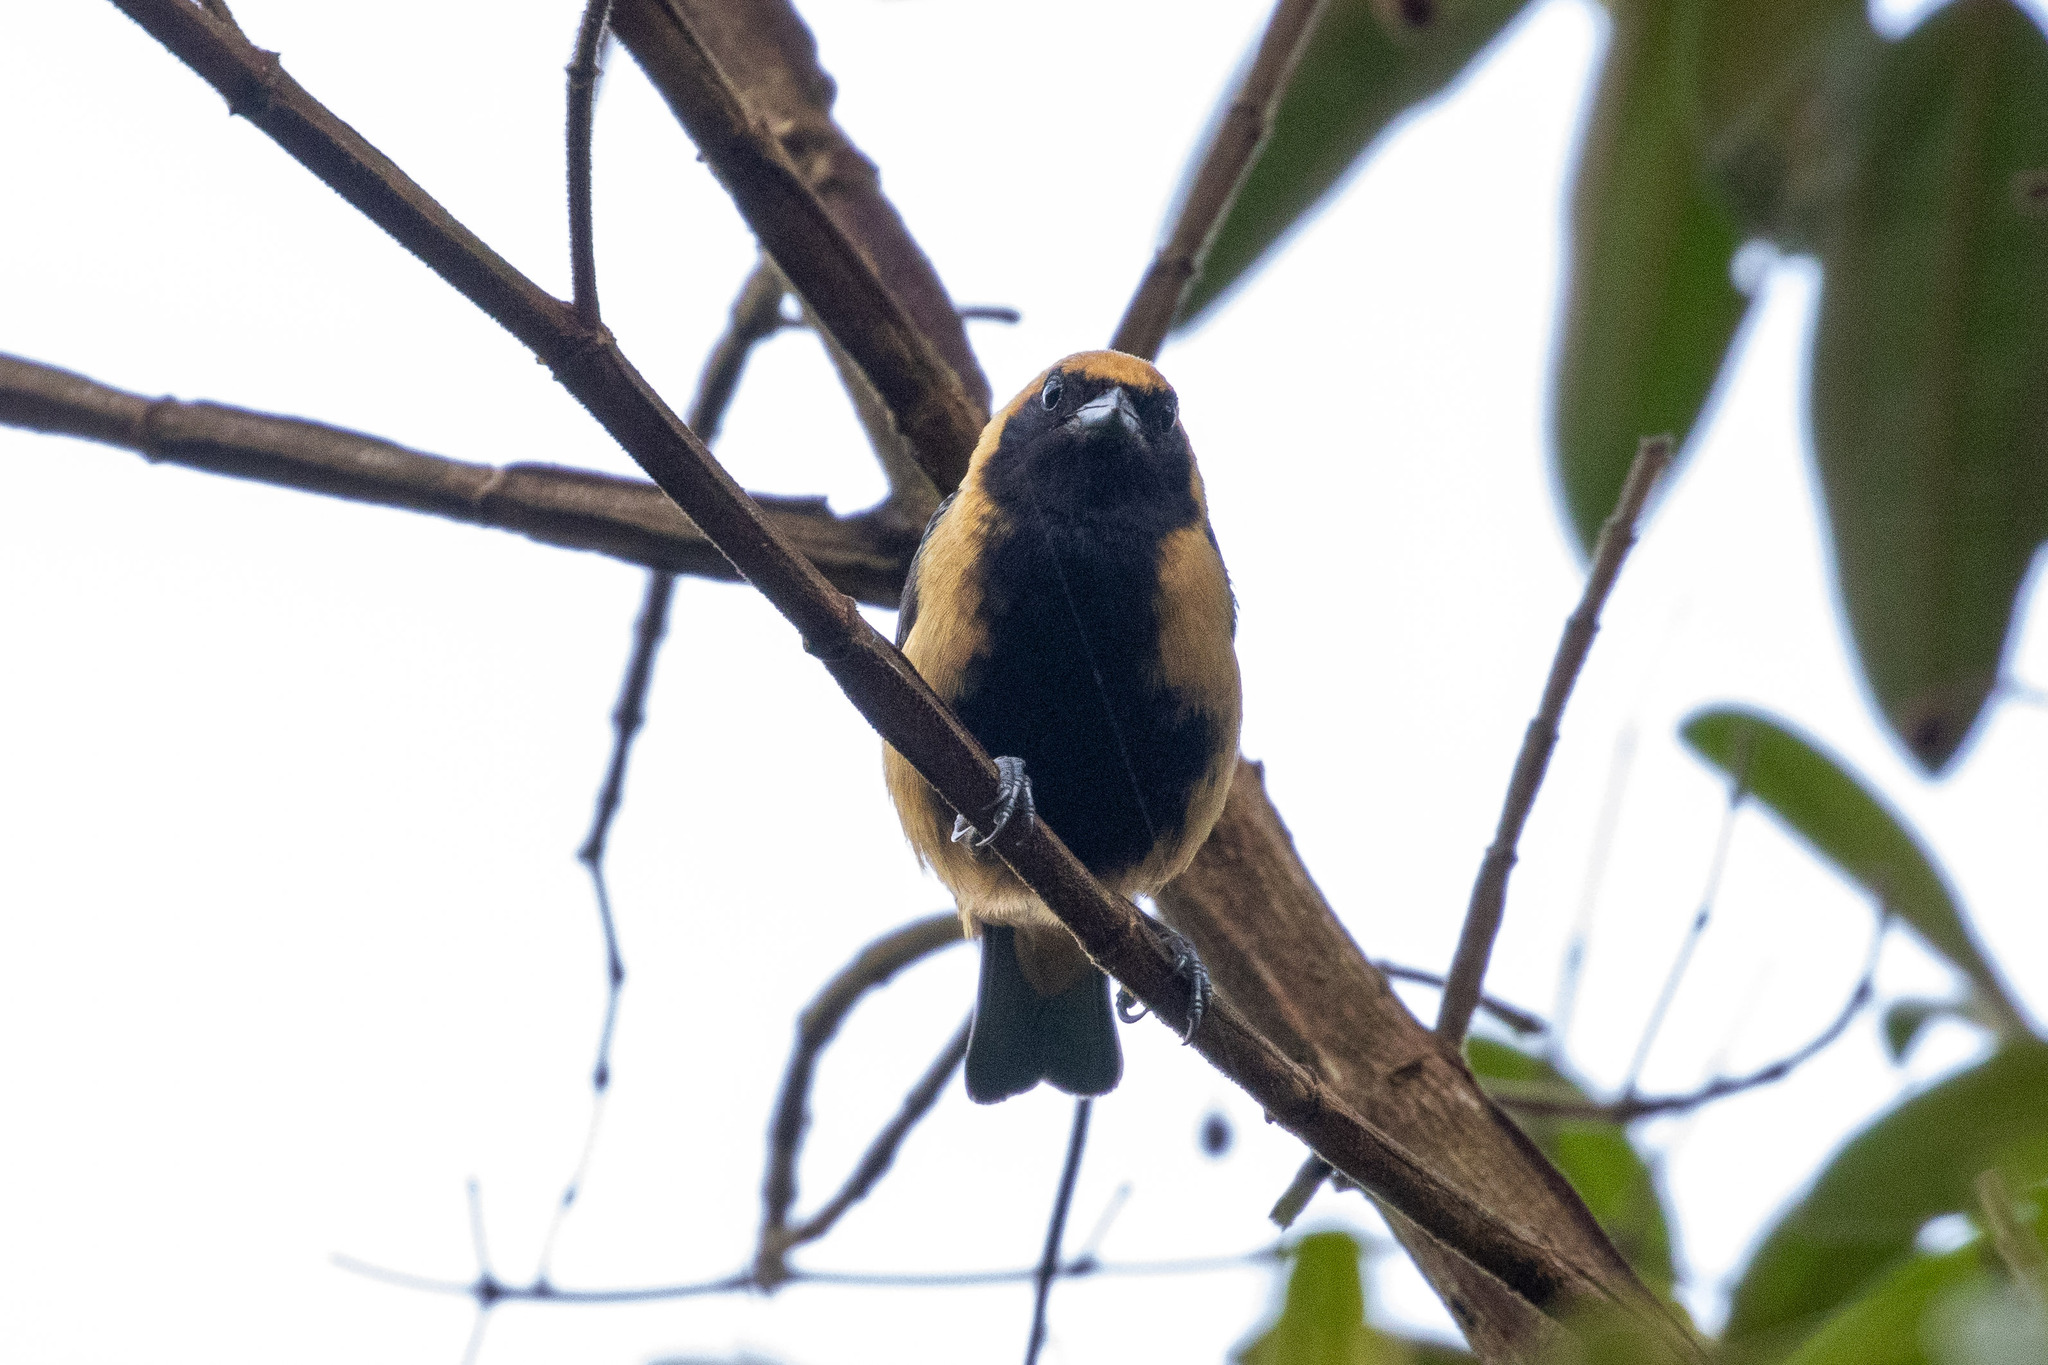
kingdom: Animalia
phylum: Chordata
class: Aves
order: Passeriformes
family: Thraupidae
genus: Stilpnia
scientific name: Stilpnia cayana
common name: Burnished-buff tanager
